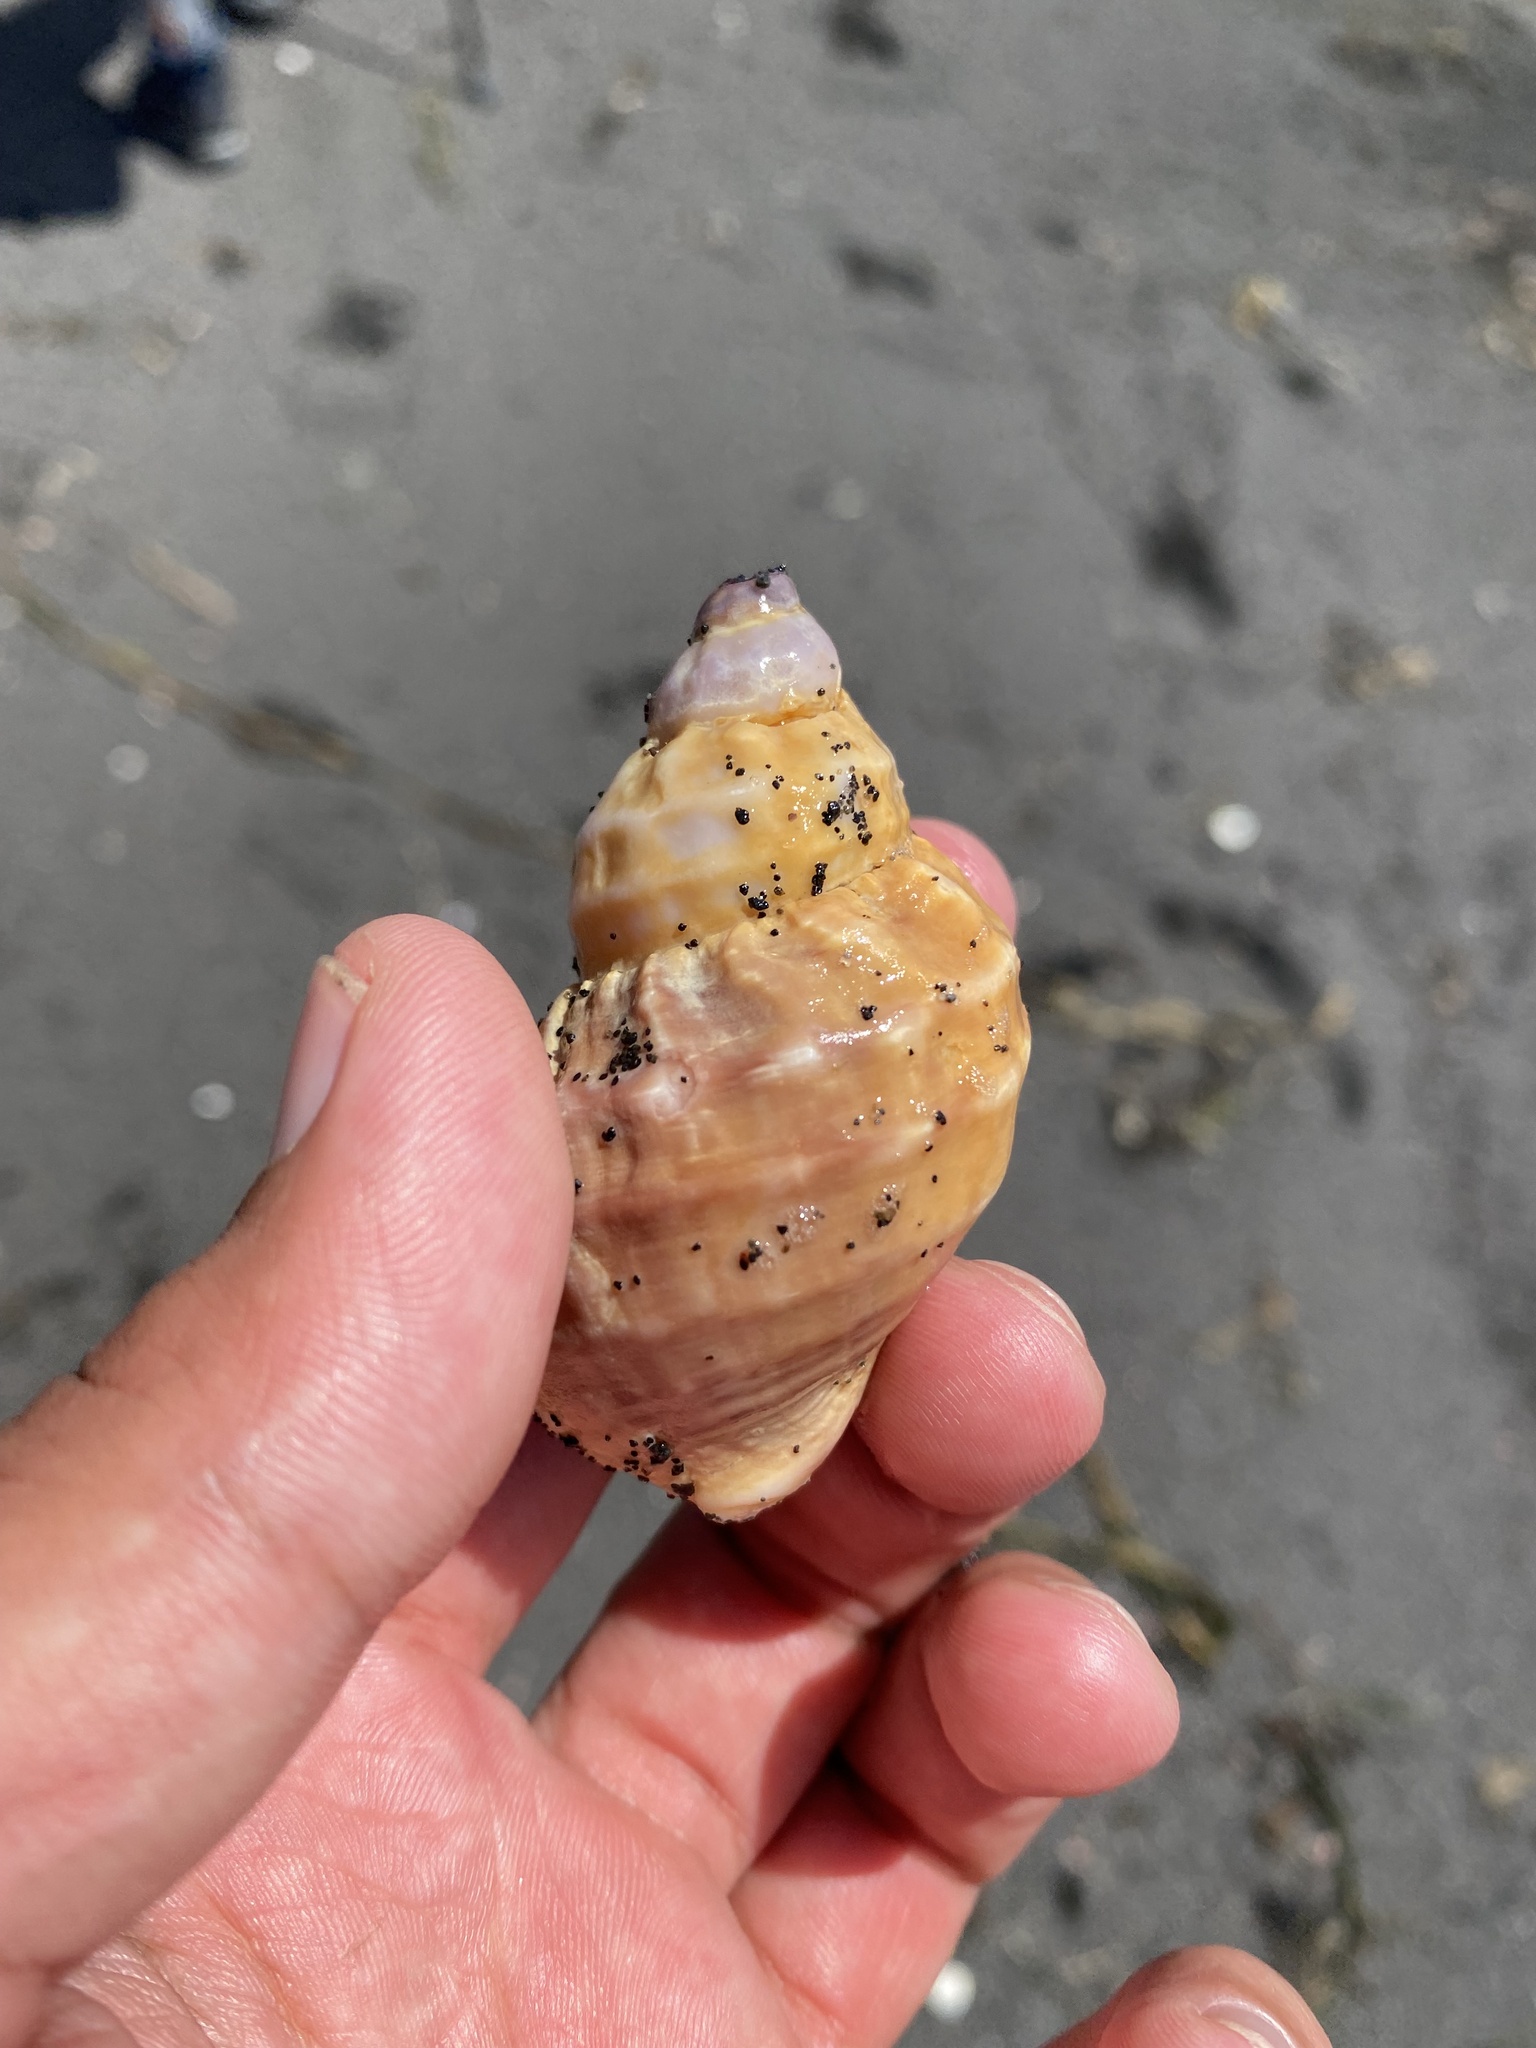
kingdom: Animalia
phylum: Mollusca
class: Gastropoda
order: Neogastropoda
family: Buccinidae
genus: Buccinum
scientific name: Buccinum mirandum
